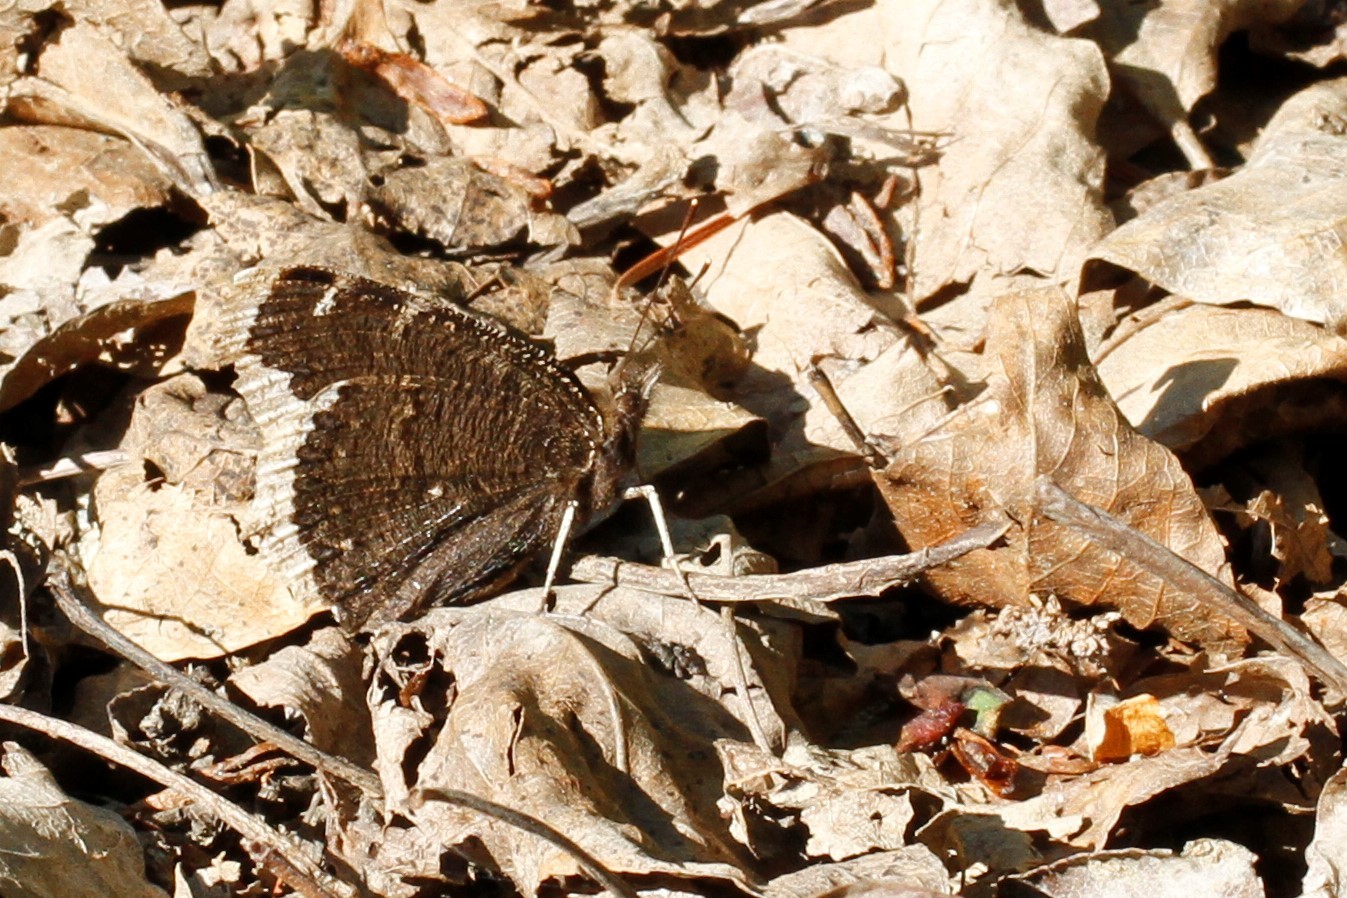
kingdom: Animalia
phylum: Arthropoda
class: Insecta
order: Lepidoptera
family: Nymphalidae
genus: Nymphalis
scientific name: Nymphalis antiopa
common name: Camberwell beauty
